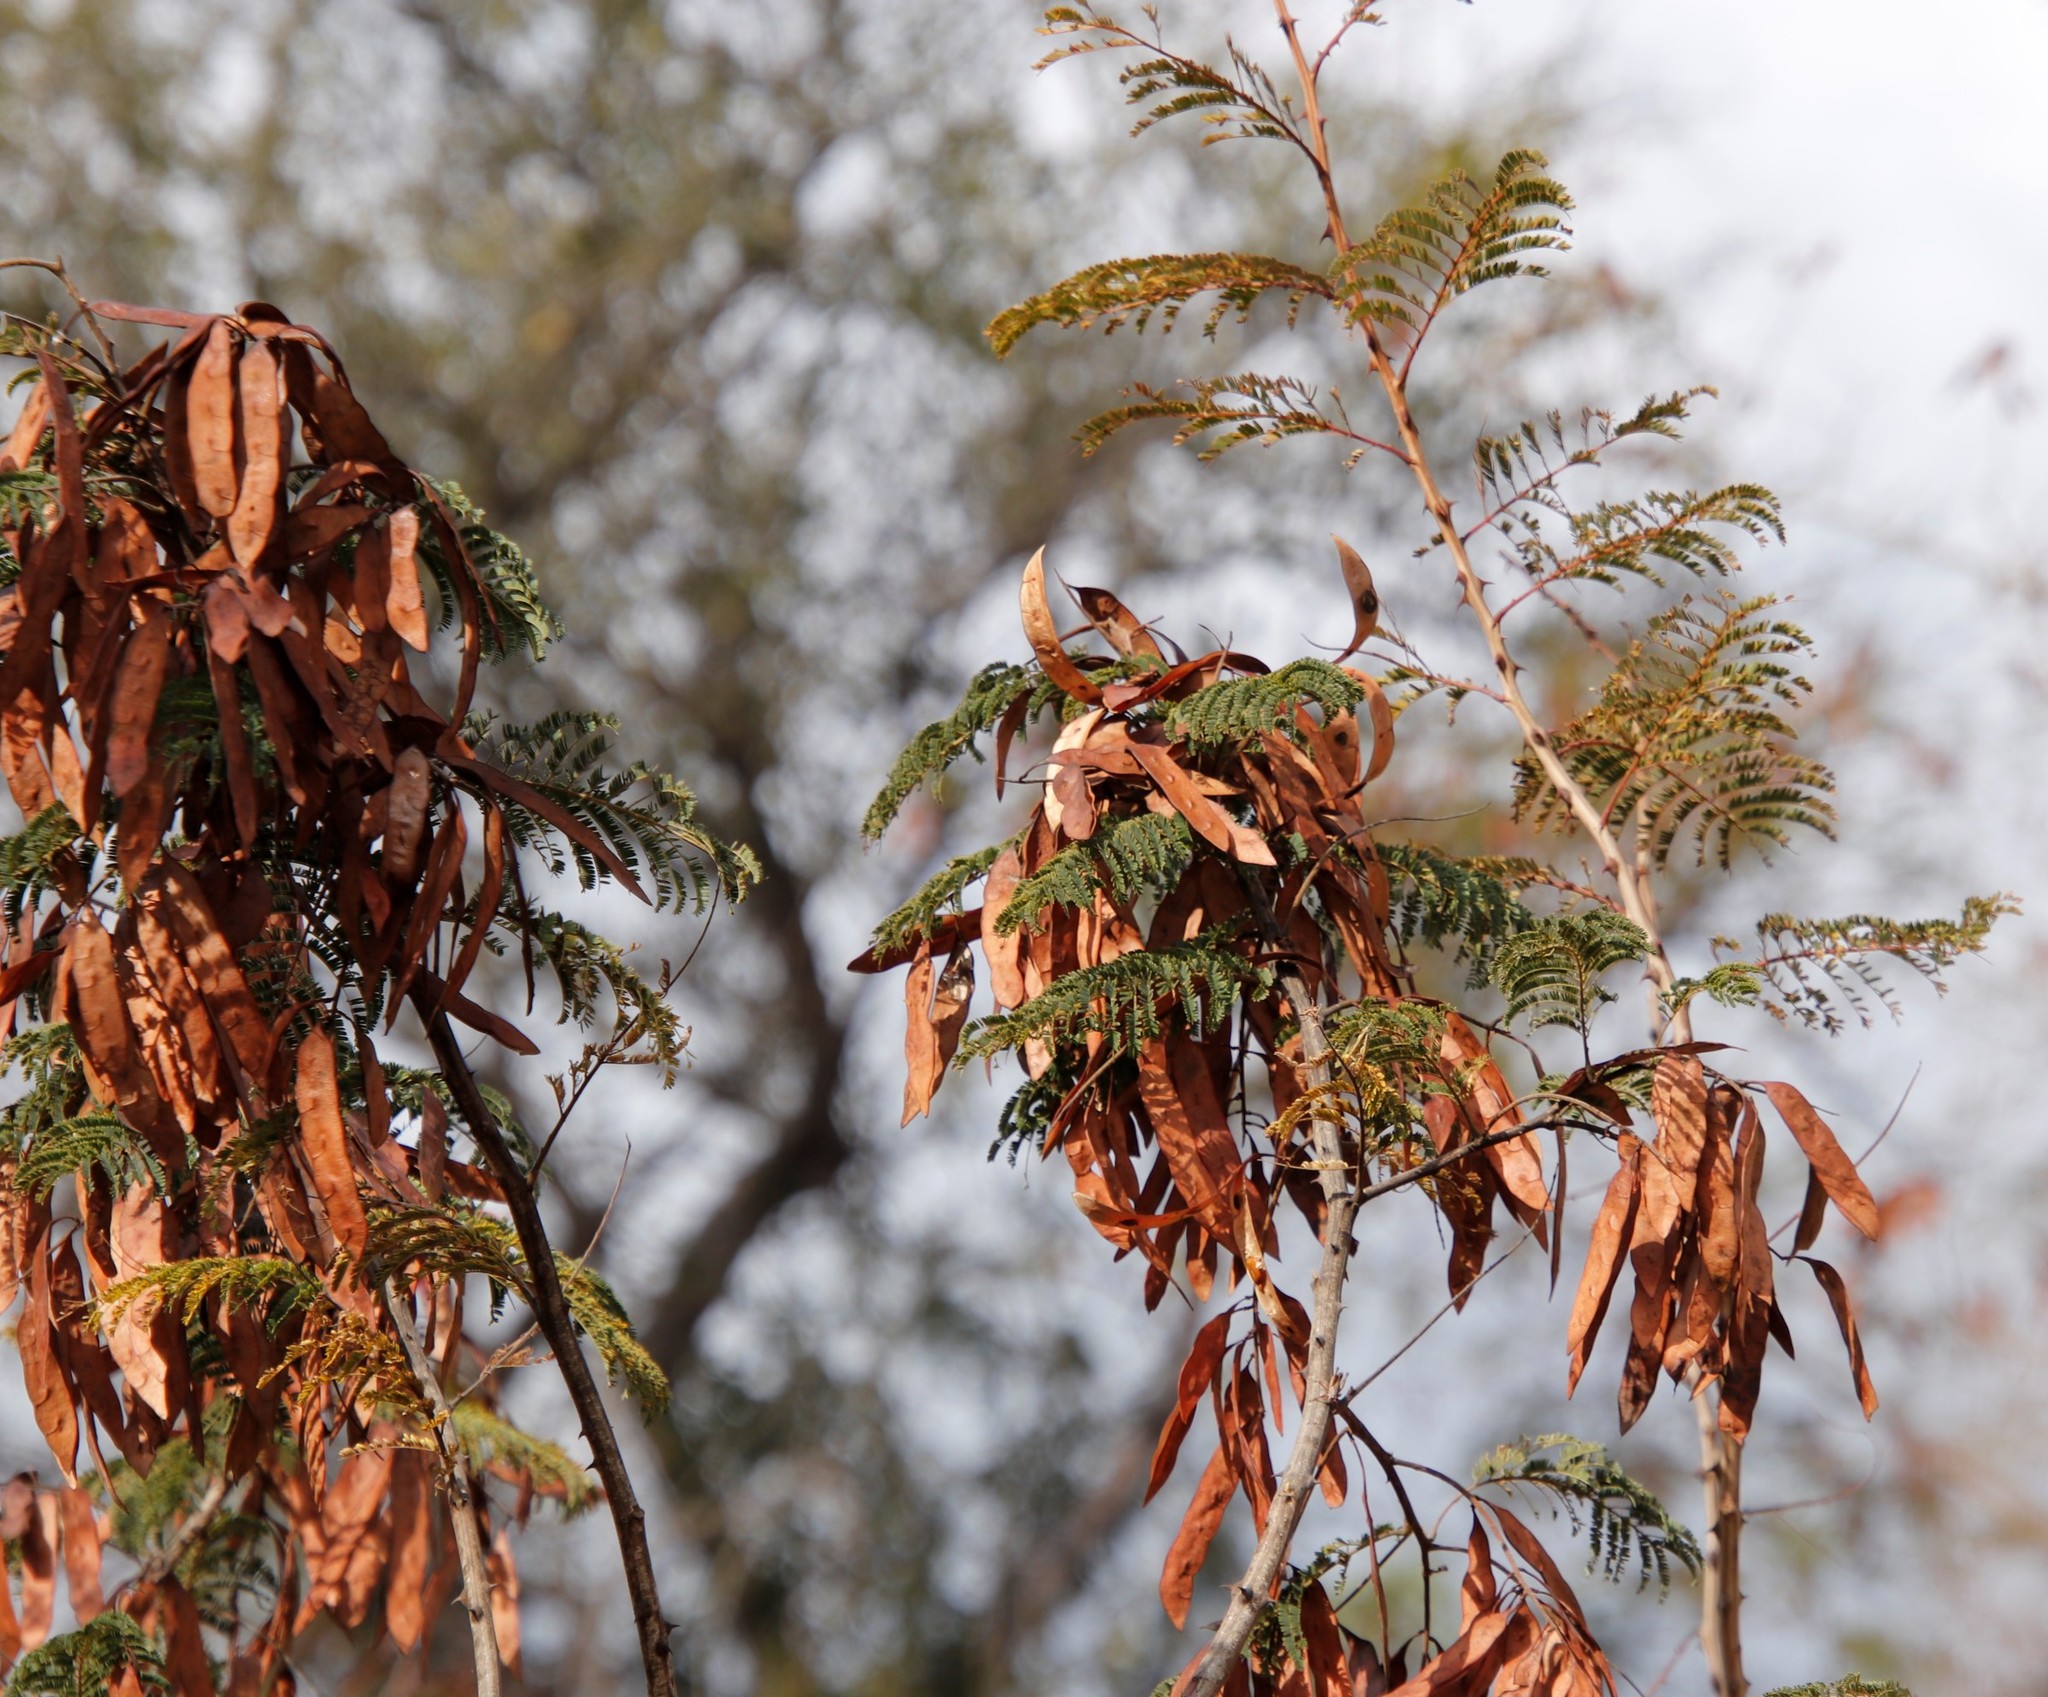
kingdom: Plantae
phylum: Tracheophyta
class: Magnoliopsida
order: Saxifragales
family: Crassulaceae
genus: Crassula
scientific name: Crassula sarmentosa
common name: Jade-tree
